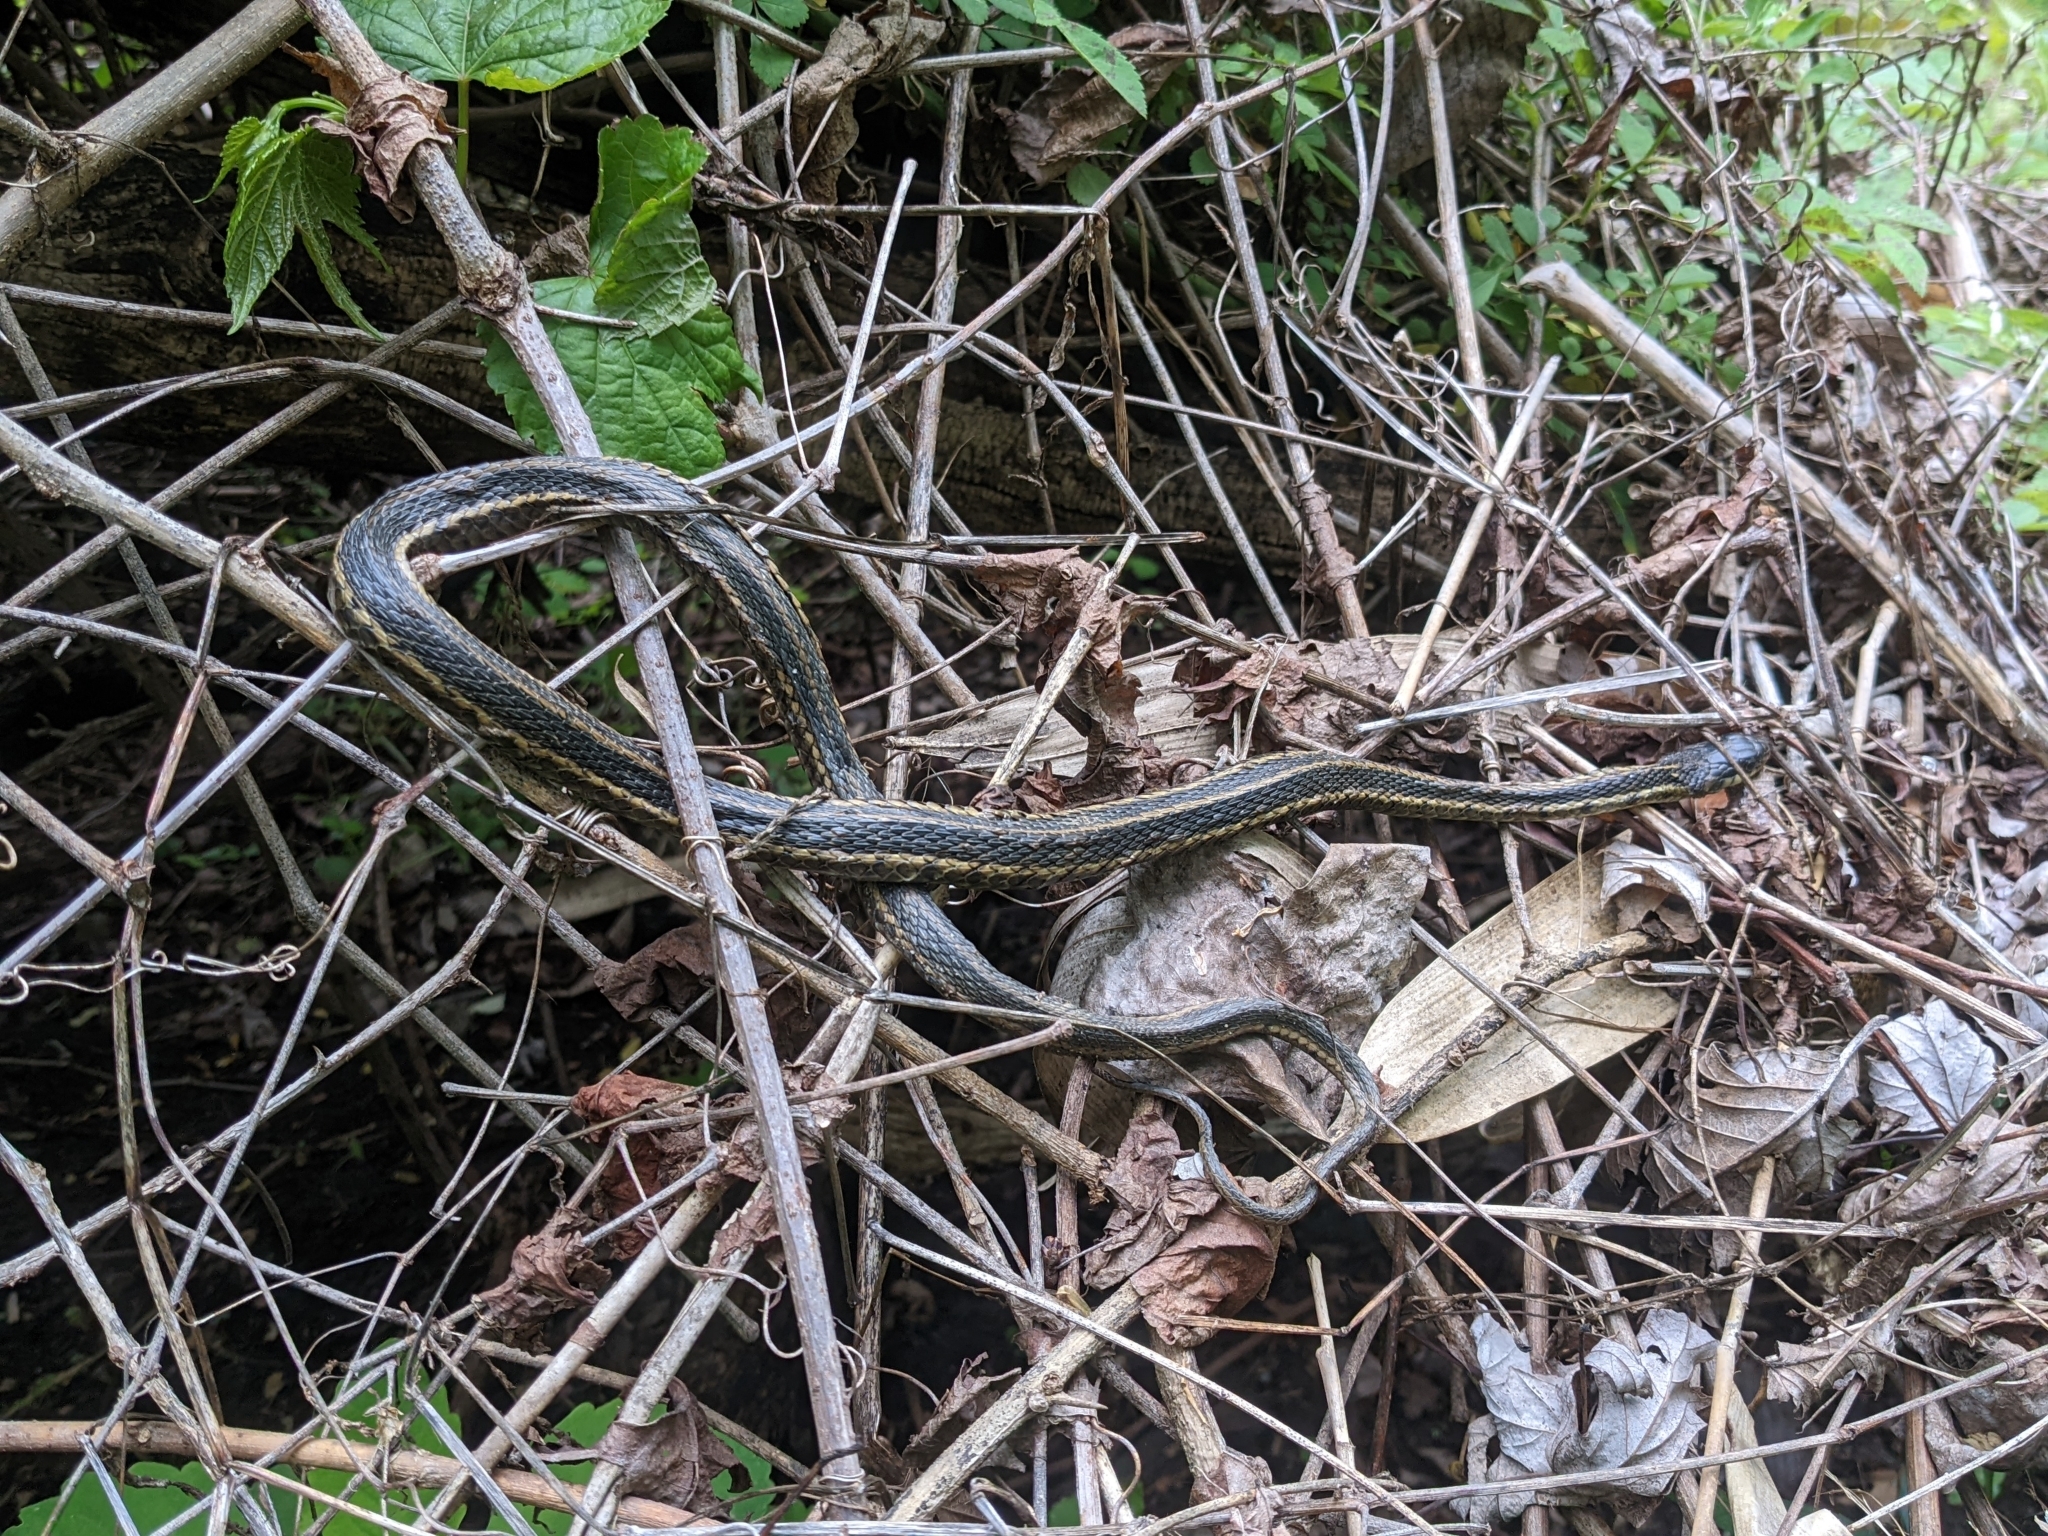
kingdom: Animalia
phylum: Chordata
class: Squamata
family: Colubridae
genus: Thamnophis
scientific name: Thamnophis sirtalis
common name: Common garter snake
